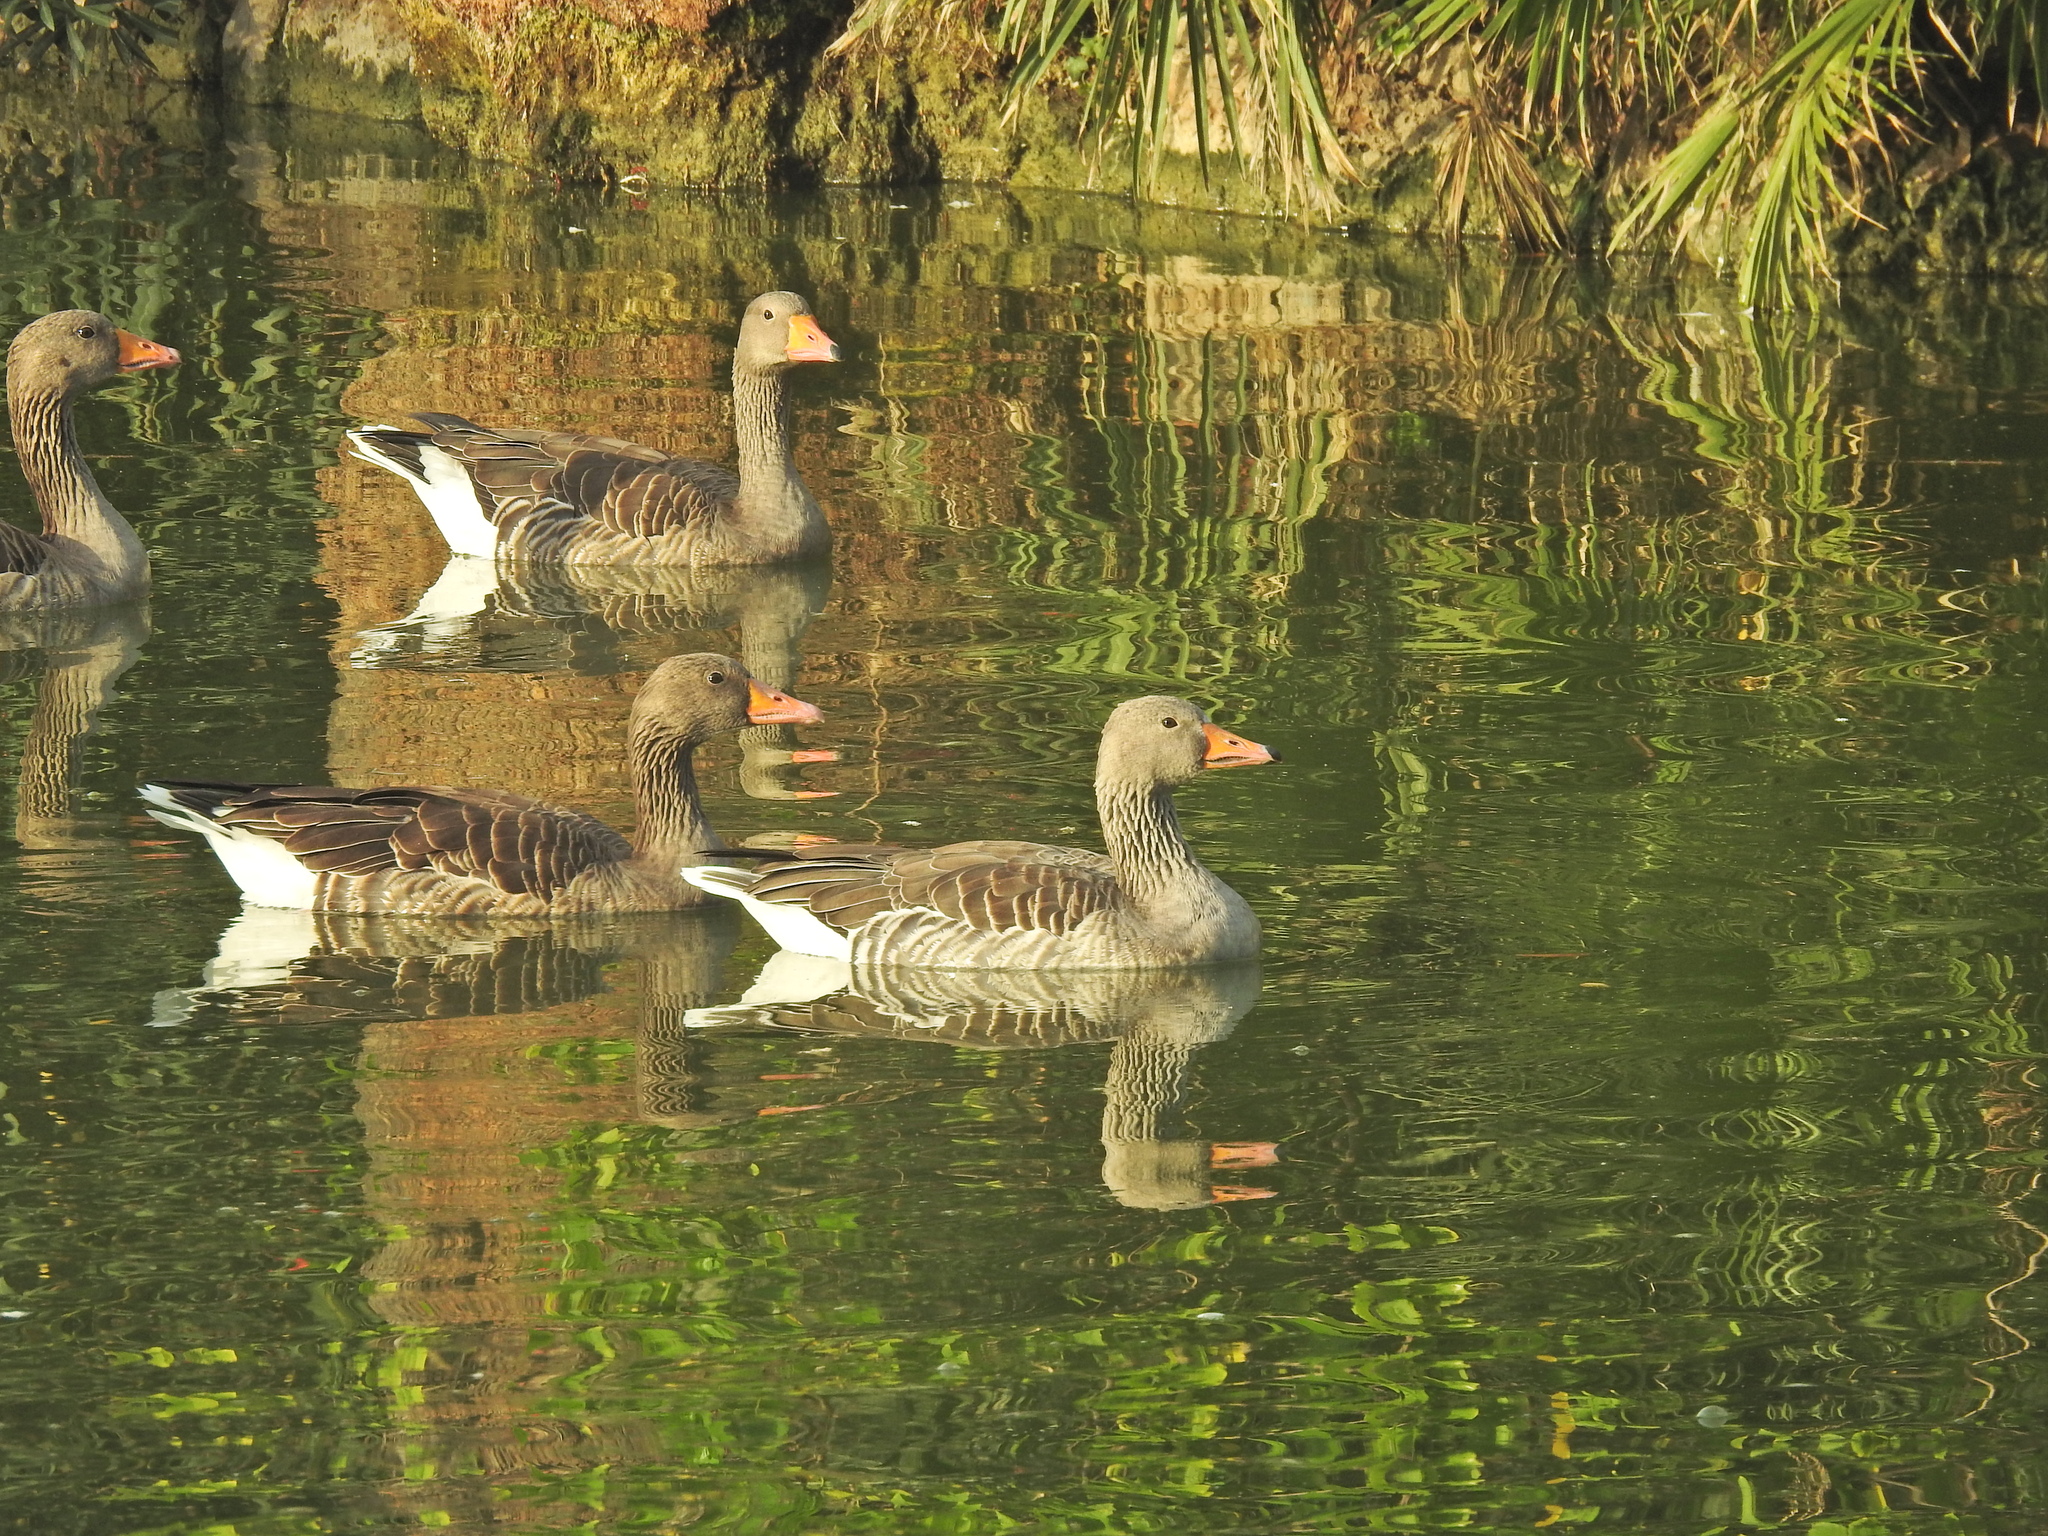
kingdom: Animalia
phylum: Chordata
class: Aves
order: Anseriformes
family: Anatidae
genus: Anser
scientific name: Anser anser
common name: Greylag goose
